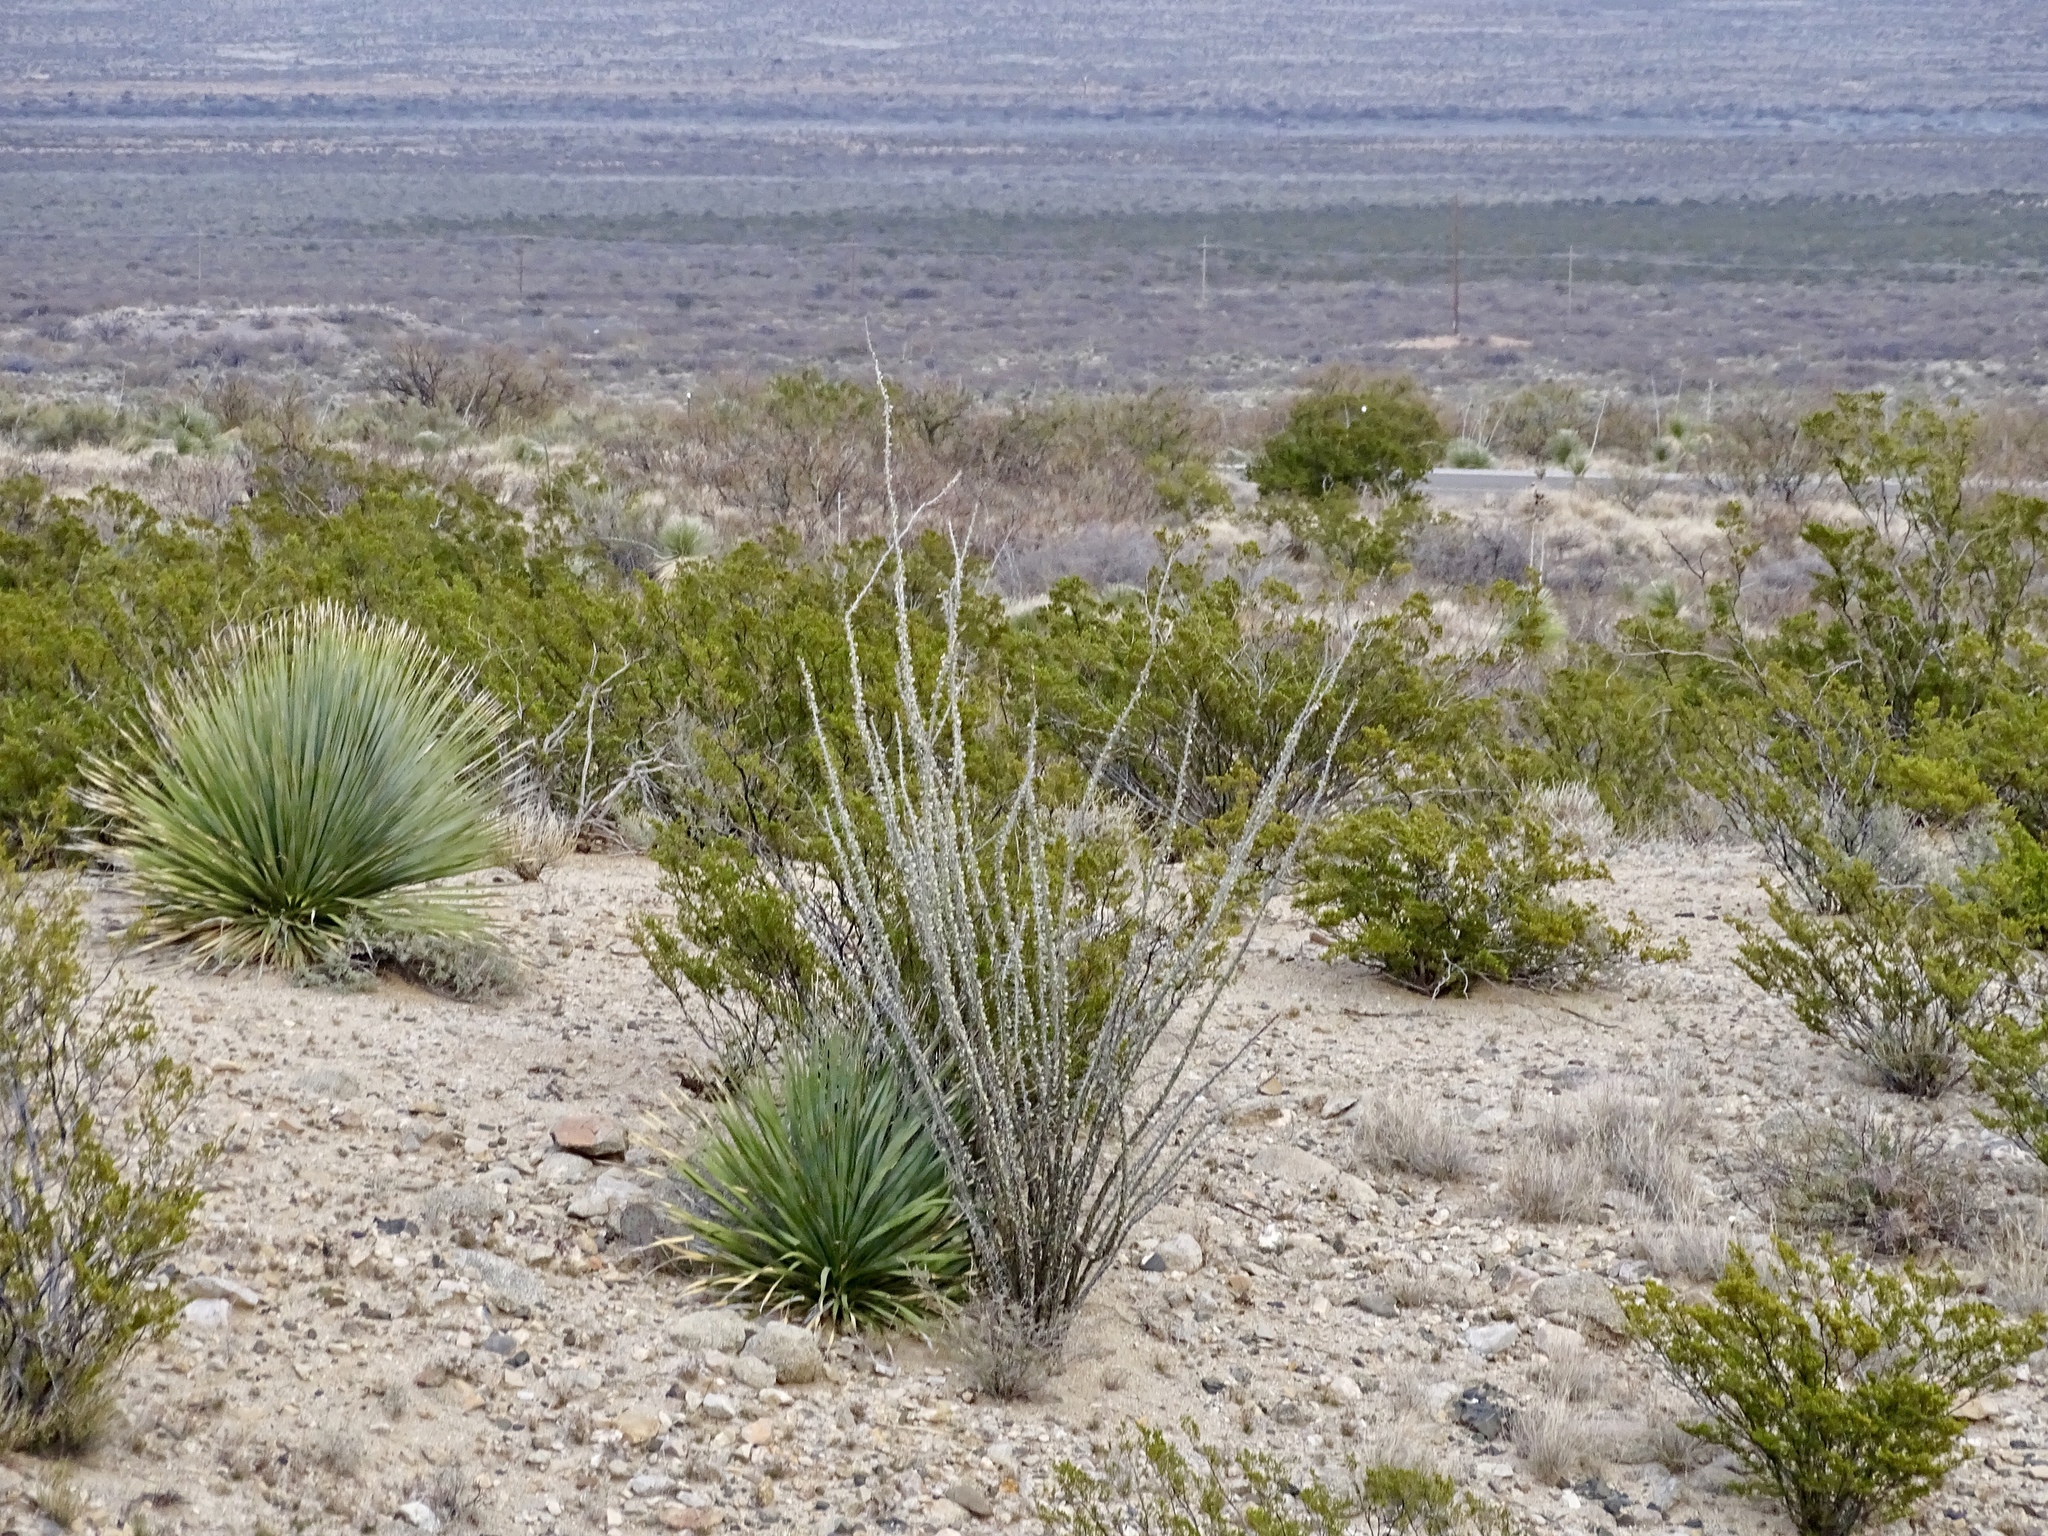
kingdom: Plantae
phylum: Tracheophyta
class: Magnoliopsida
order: Ericales
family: Fouquieriaceae
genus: Fouquieria
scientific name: Fouquieria splendens
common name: Vine-cactus
